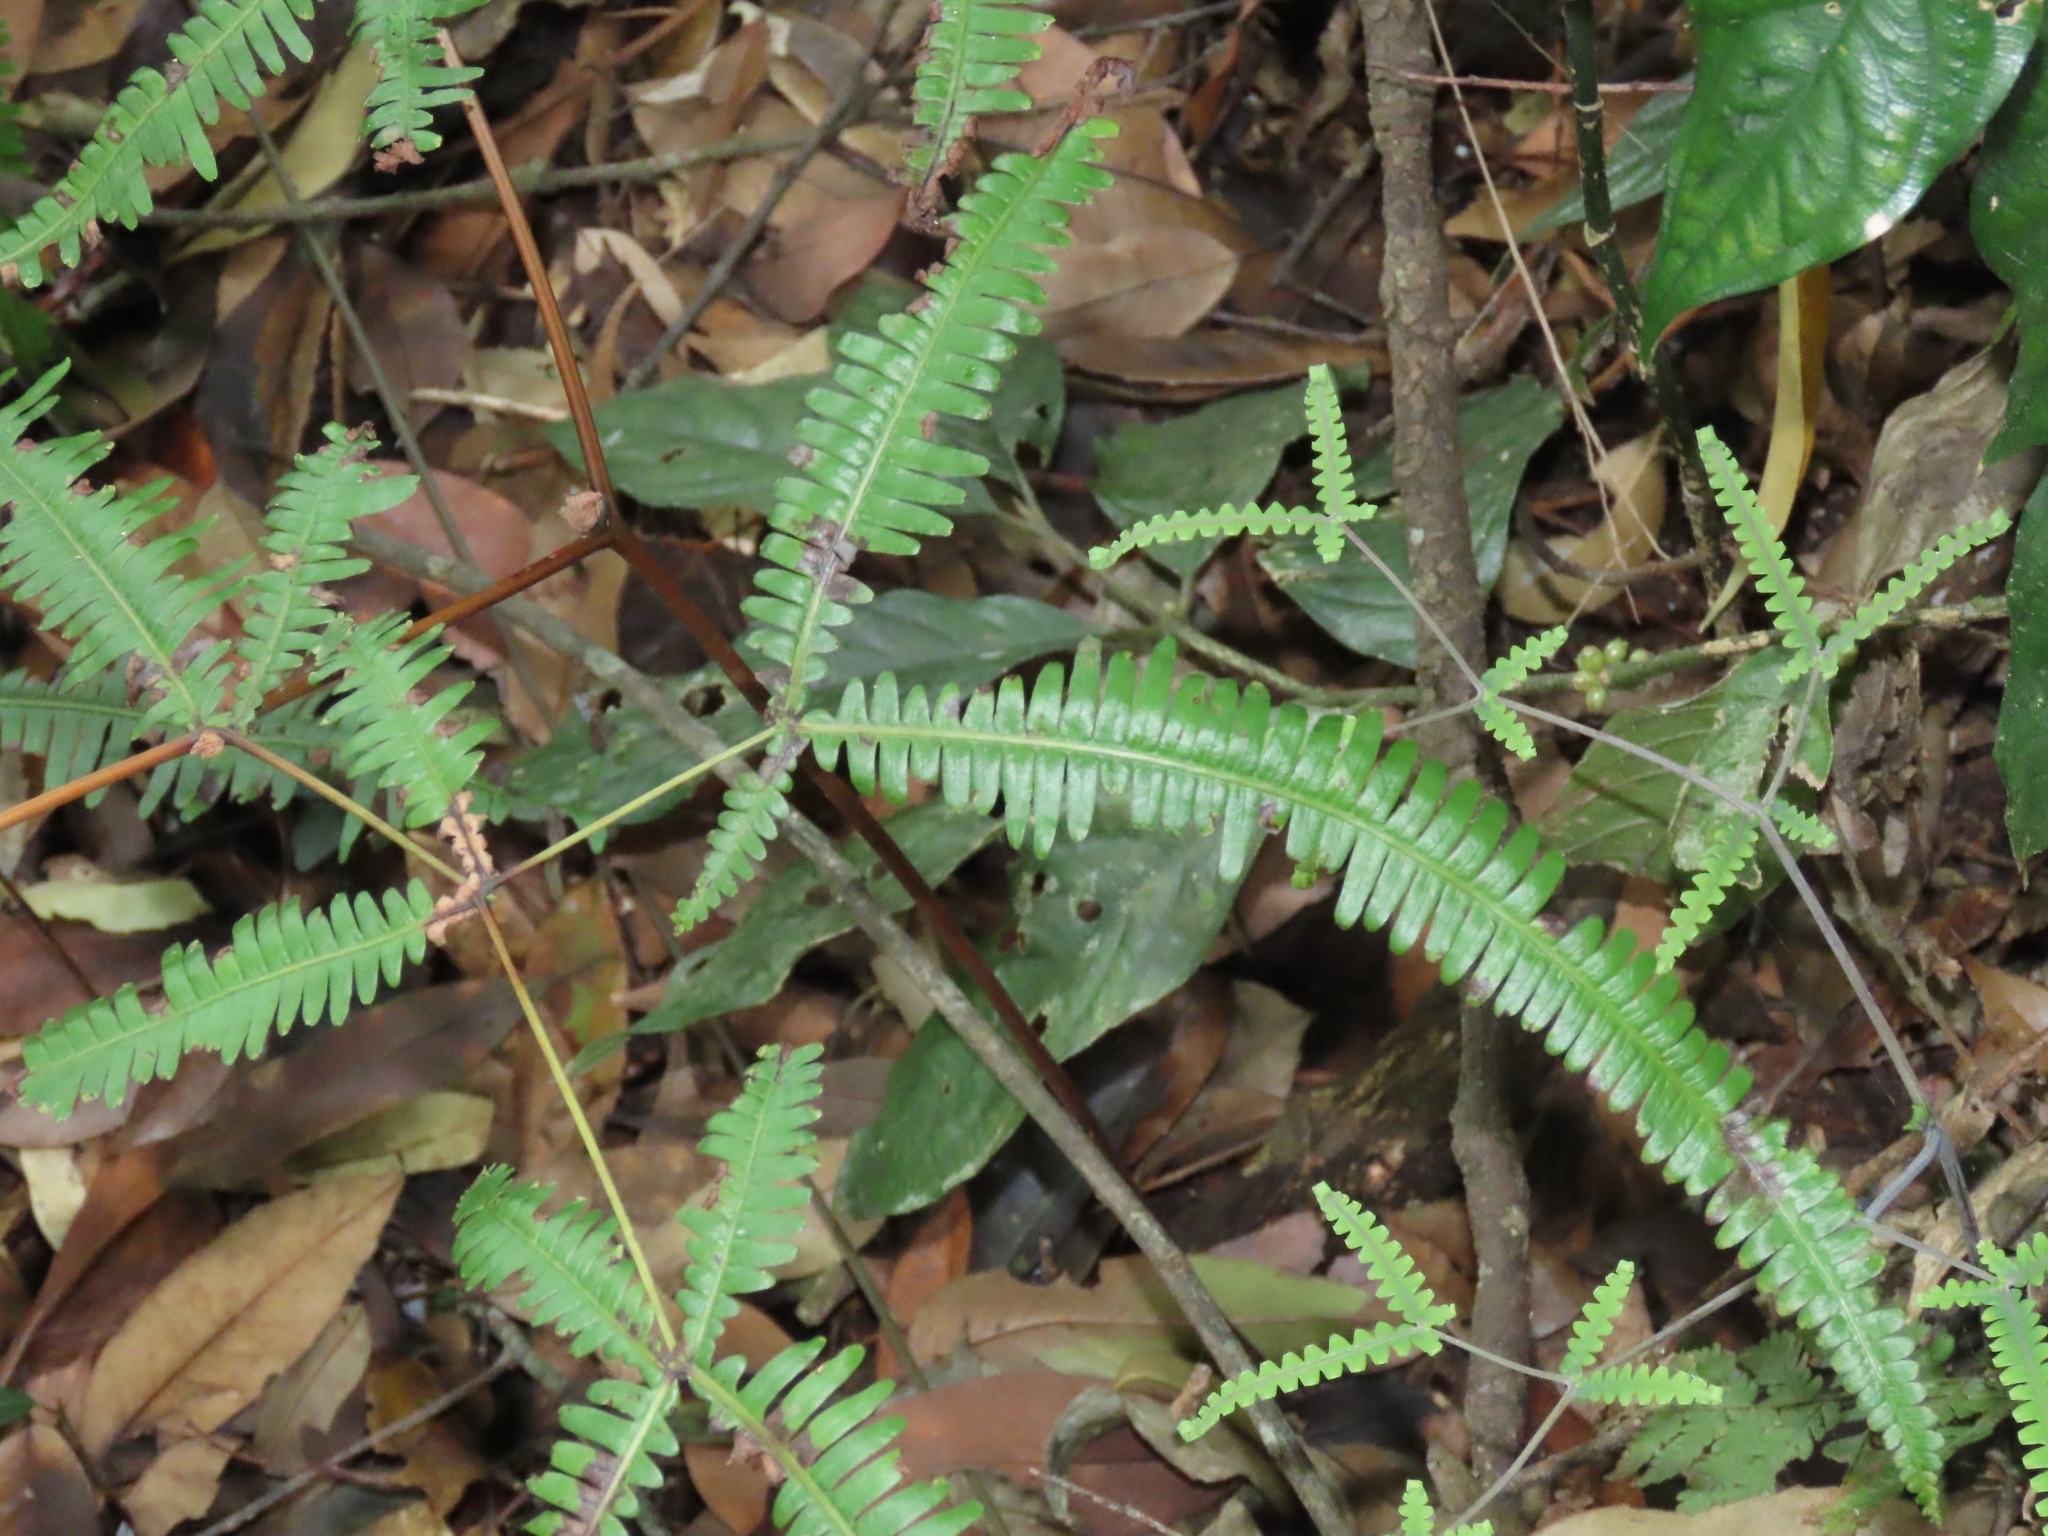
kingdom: Plantae
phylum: Tracheophyta
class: Polypodiopsida
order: Gleicheniales
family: Gleicheniaceae
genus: Dicranopteris
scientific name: Dicranopteris tetraphylla
